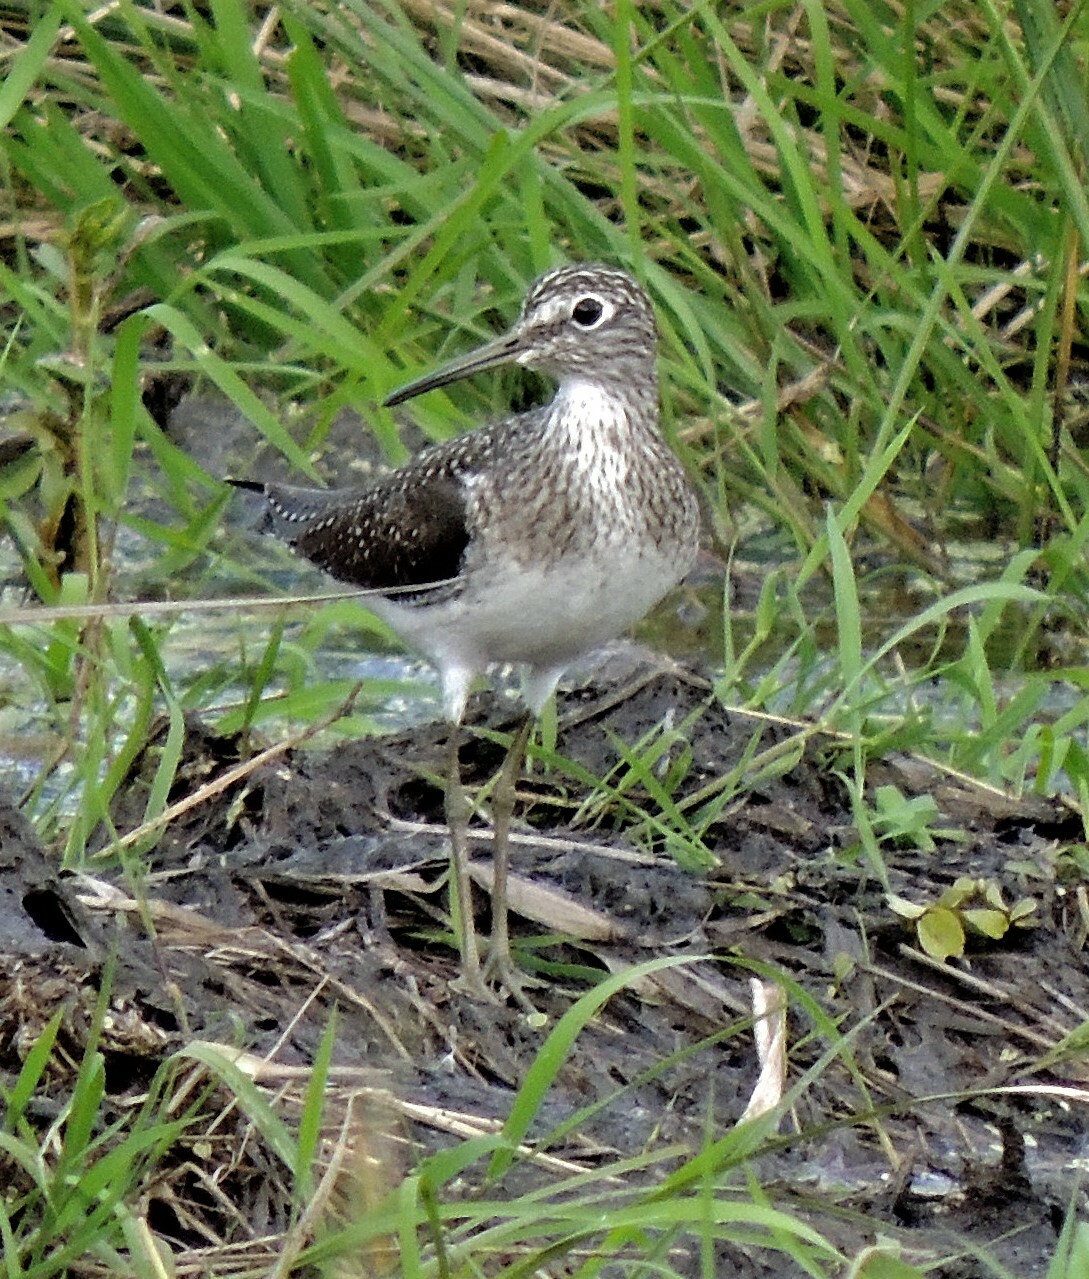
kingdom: Animalia
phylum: Chordata
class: Aves
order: Charadriiformes
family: Scolopacidae
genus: Tringa
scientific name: Tringa solitaria
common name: Solitary sandpiper
